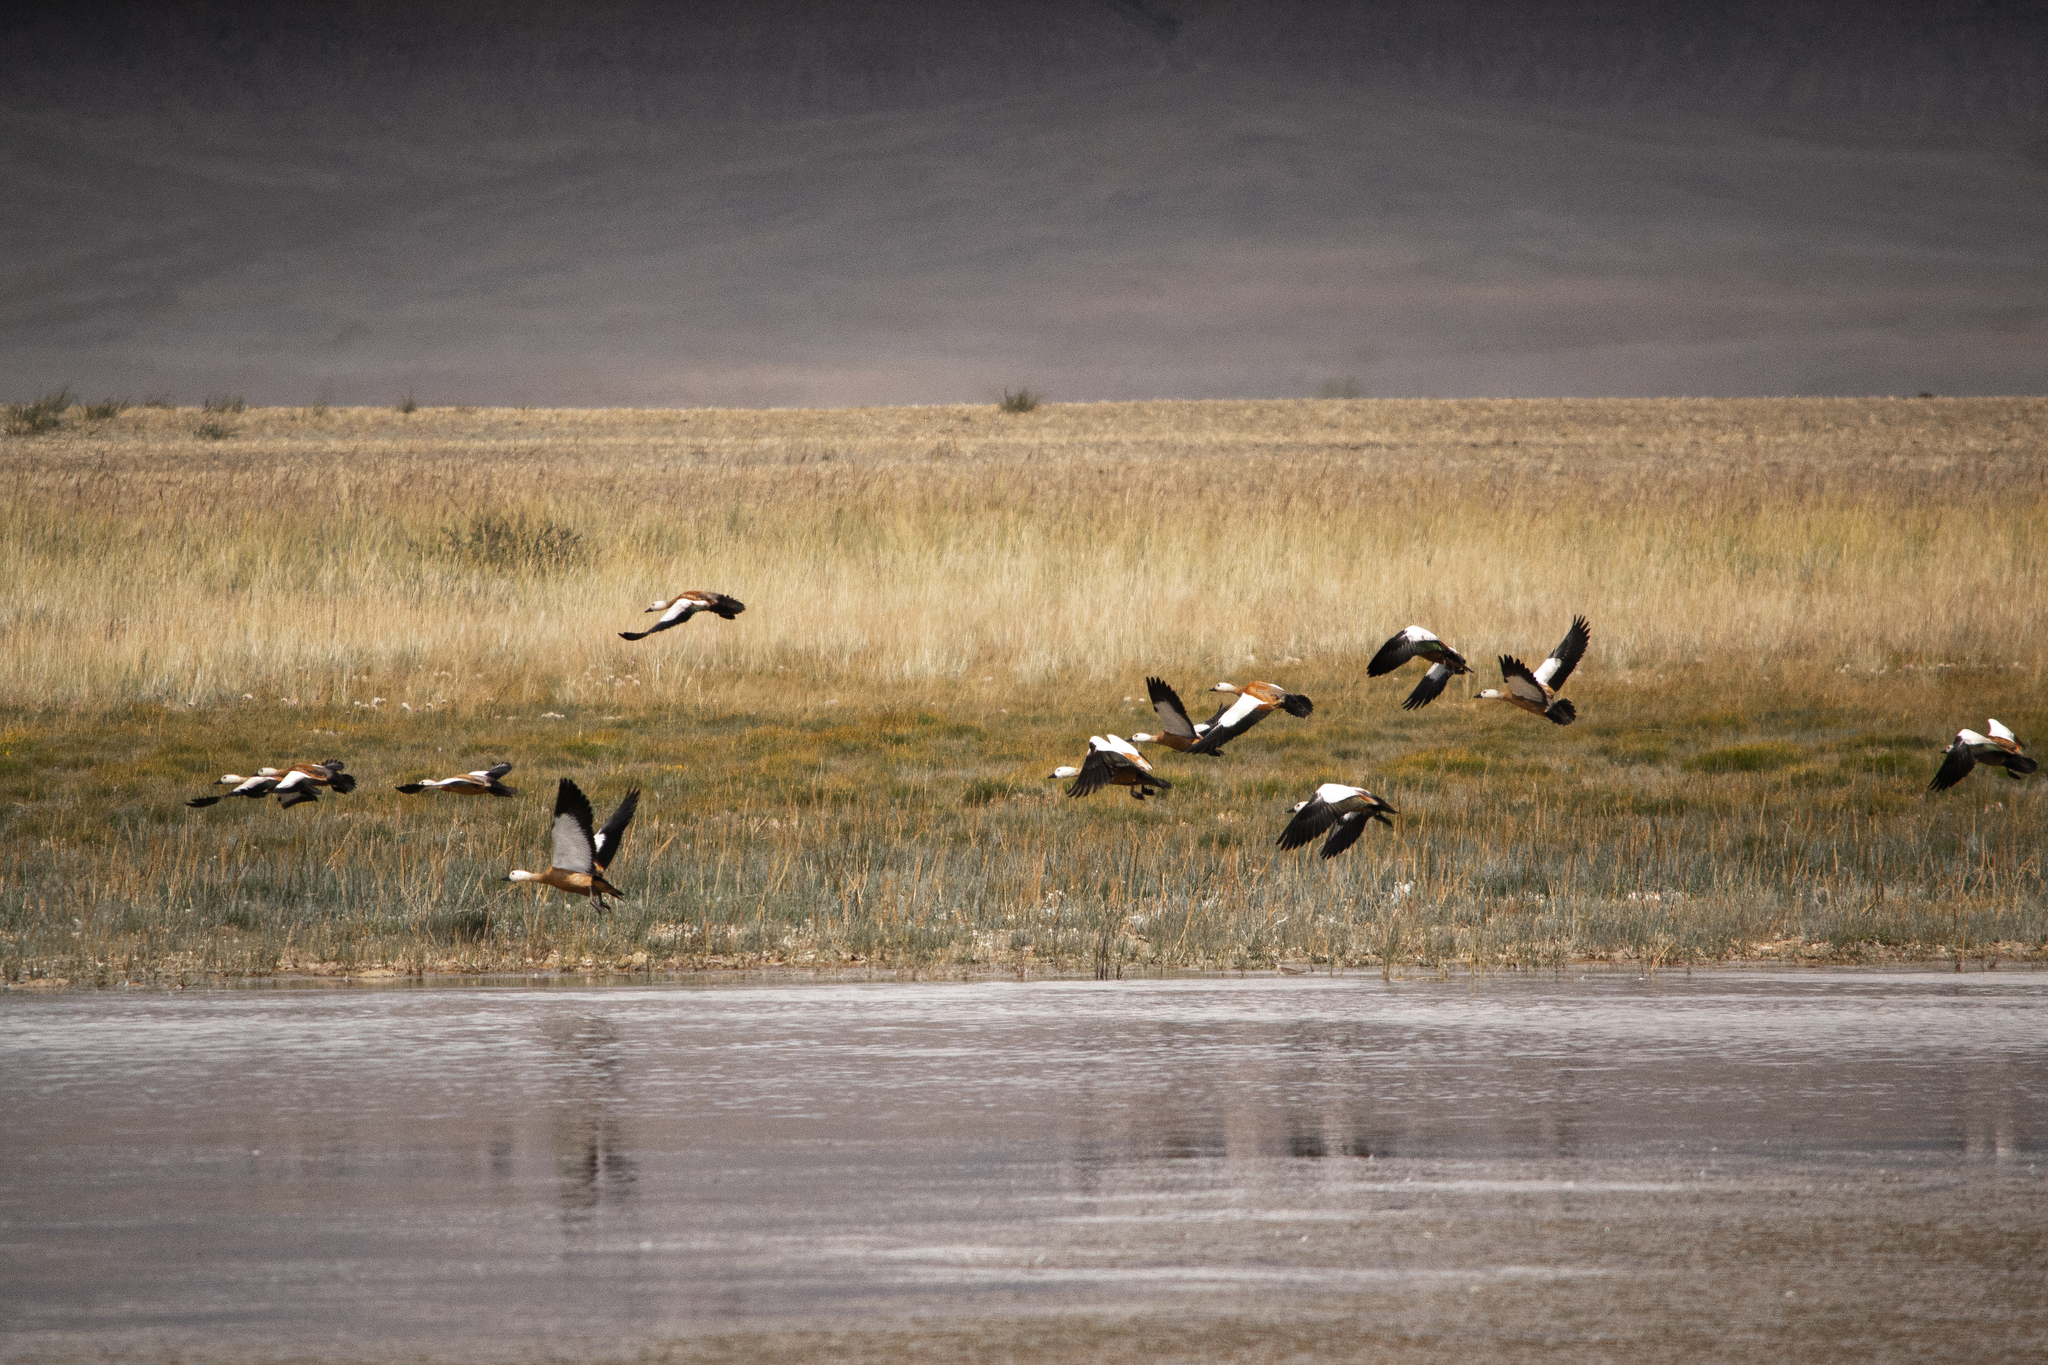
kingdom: Animalia
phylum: Chordata
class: Aves
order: Anseriformes
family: Anatidae
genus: Tadorna
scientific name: Tadorna ferruginea
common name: Ruddy shelduck
